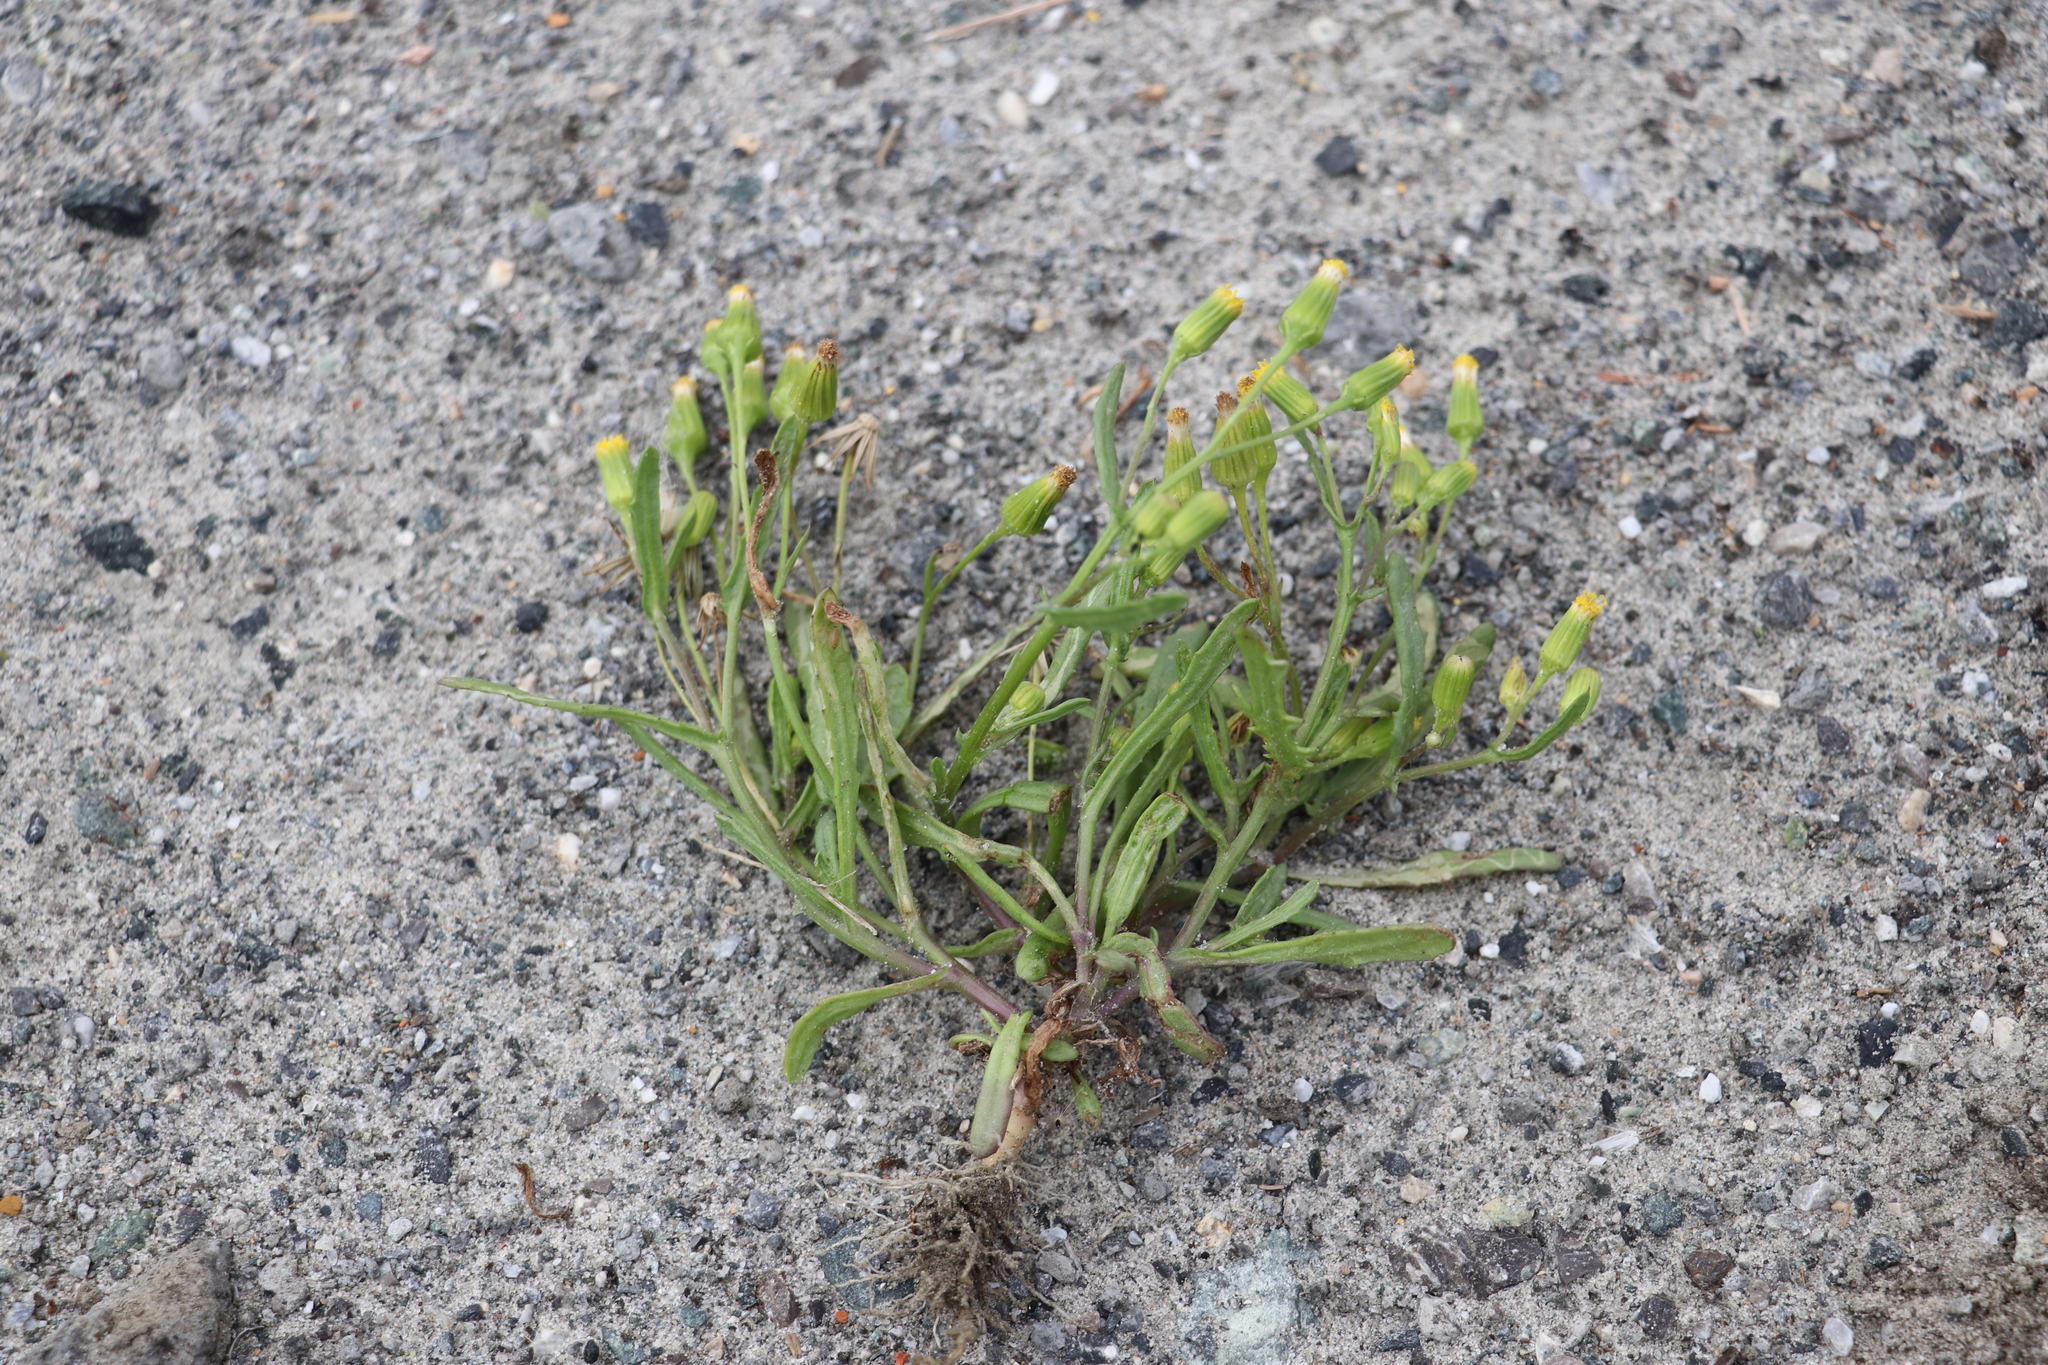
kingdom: Plantae
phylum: Tracheophyta
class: Magnoliopsida
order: Asterales
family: Asteraceae
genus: Senecio
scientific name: Senecio dubitabilis
